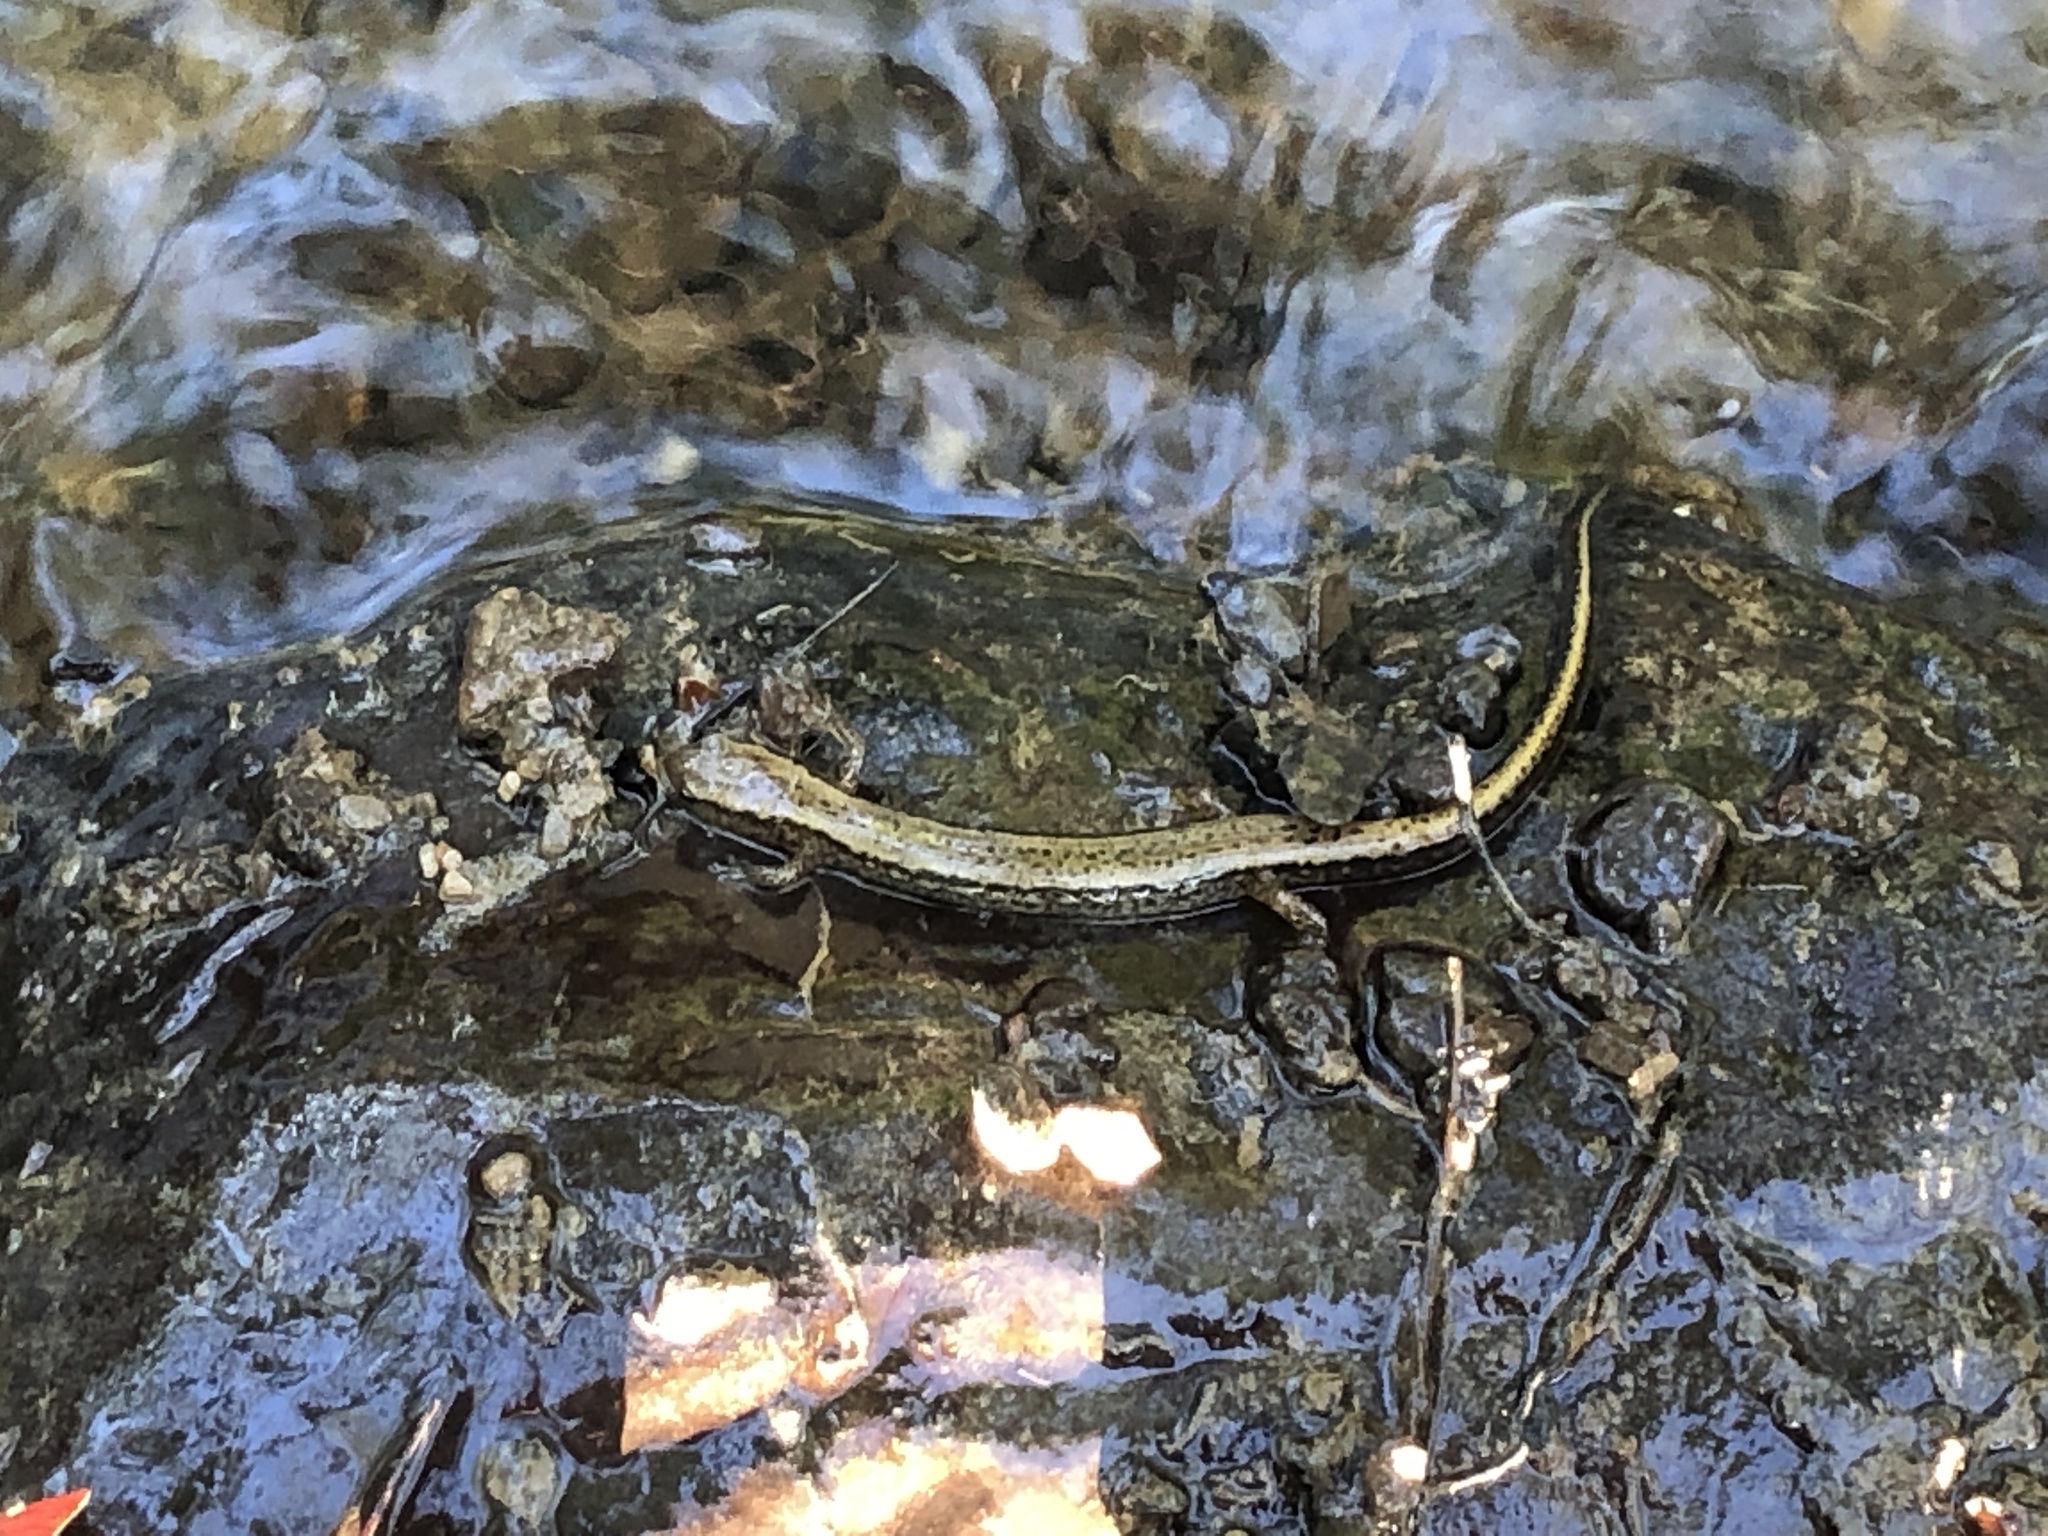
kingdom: Animalia
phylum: Chordata
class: Amphibia
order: Caudata
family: Plethodontidae
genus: Eurycea
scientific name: Eurycea cirrigera
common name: Southern two-lined salamander
